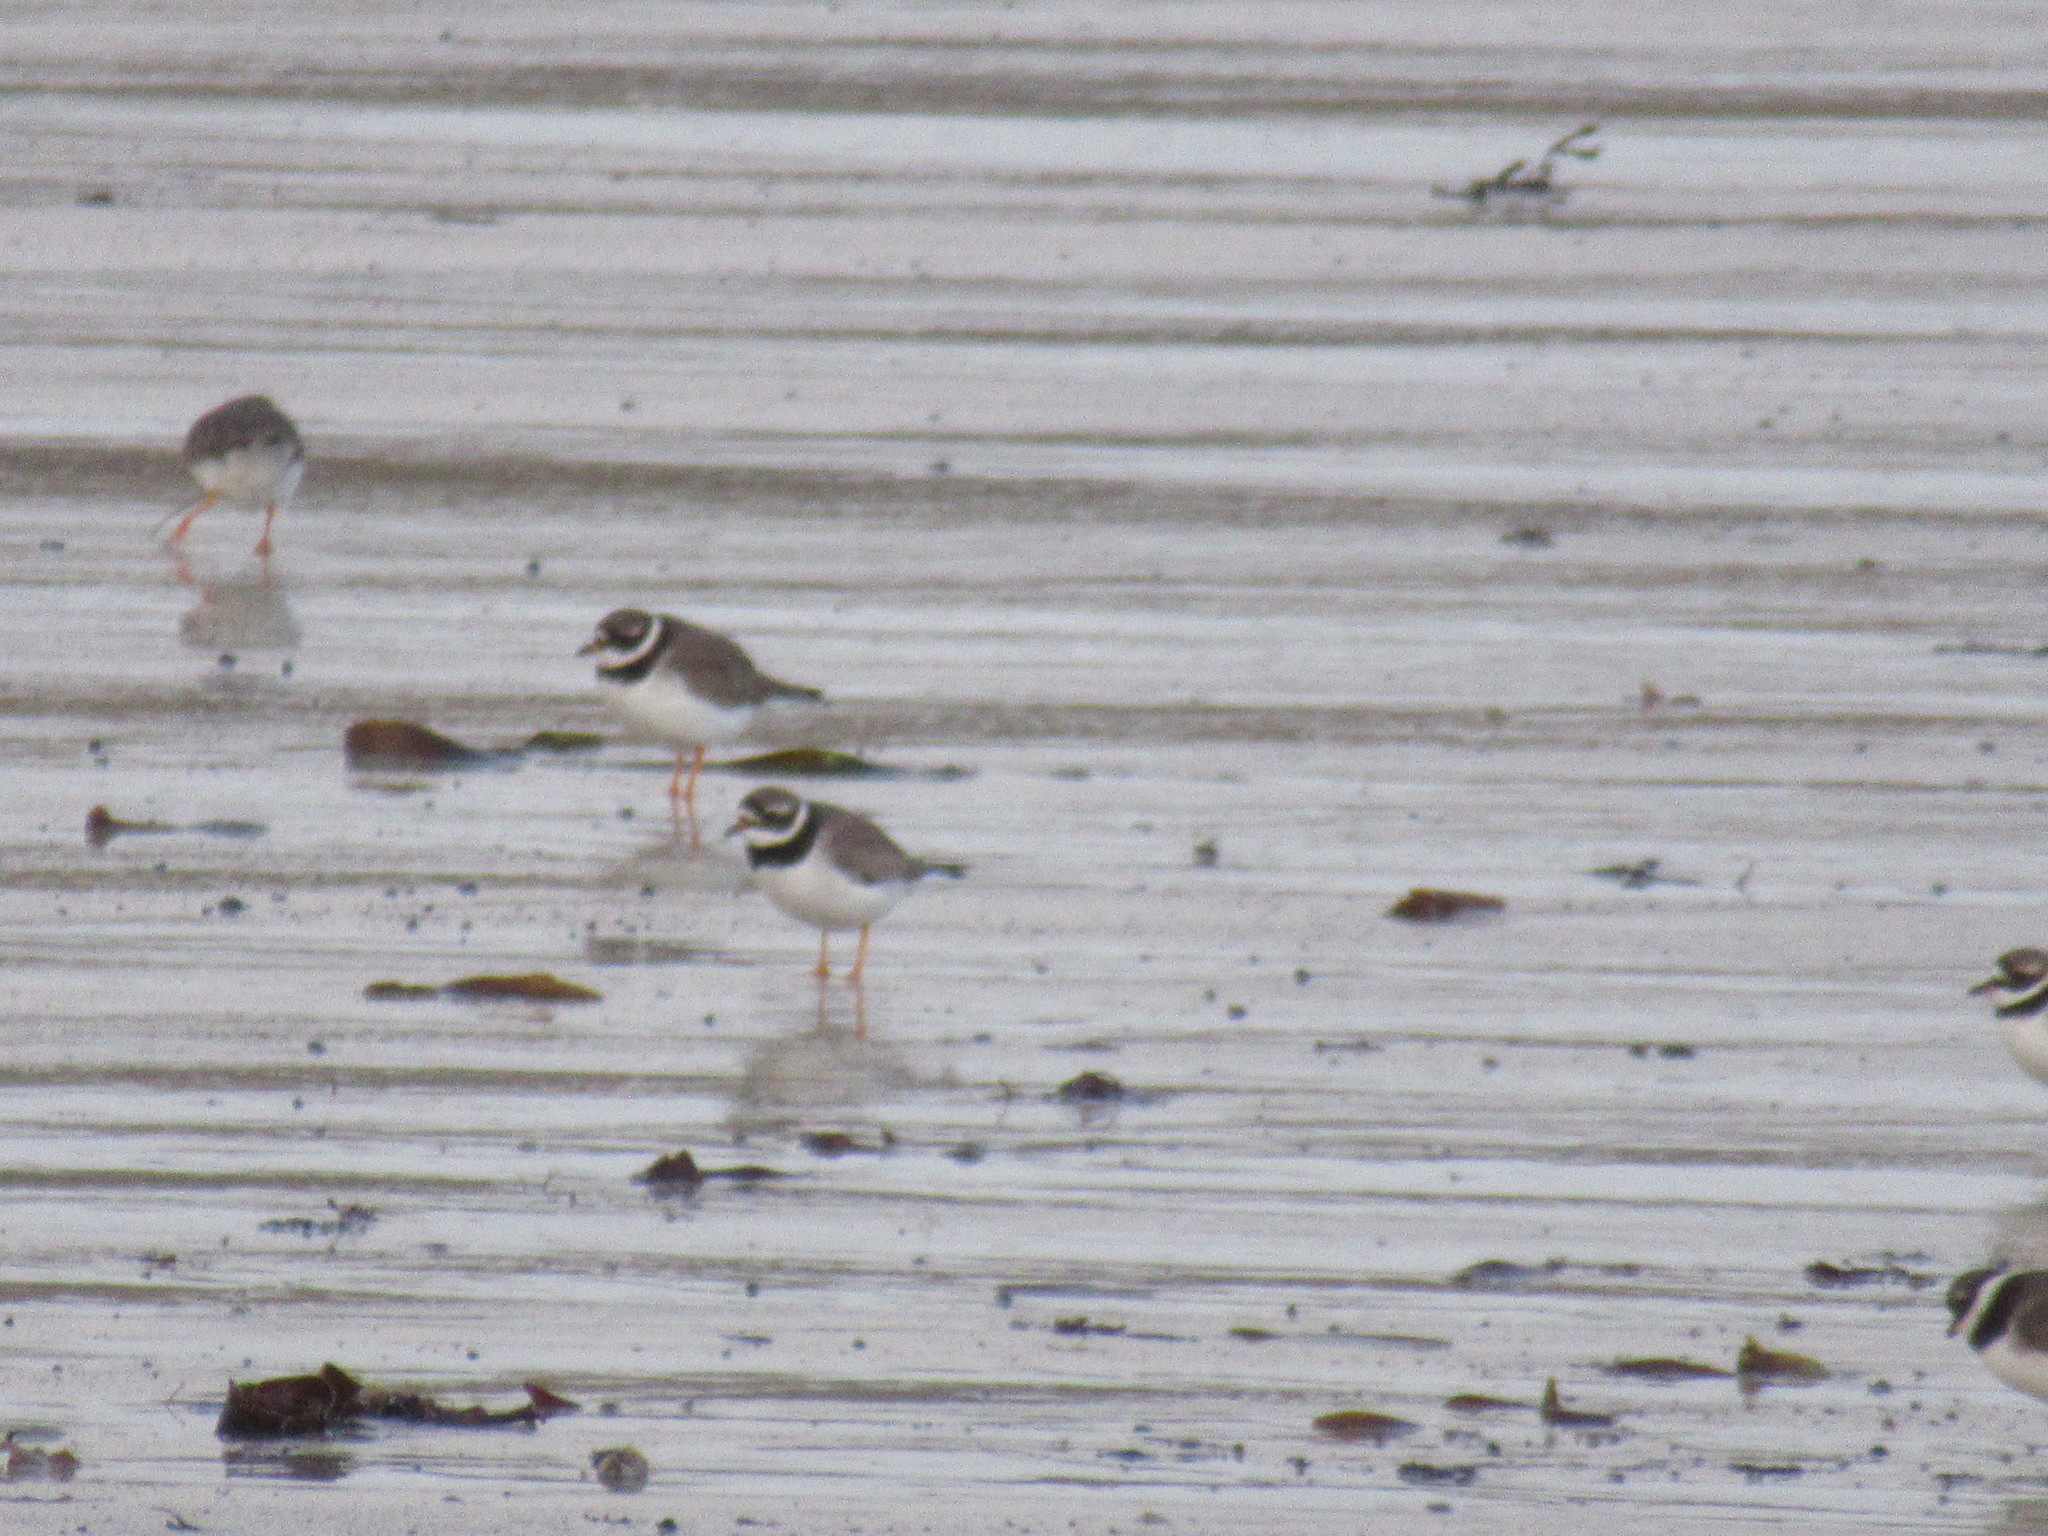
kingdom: Animalia
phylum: Chordata
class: Aves
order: Charadriiformes
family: Charadriidae
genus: Charadrius
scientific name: Charadrius hiaticula
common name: Common ringed plover
